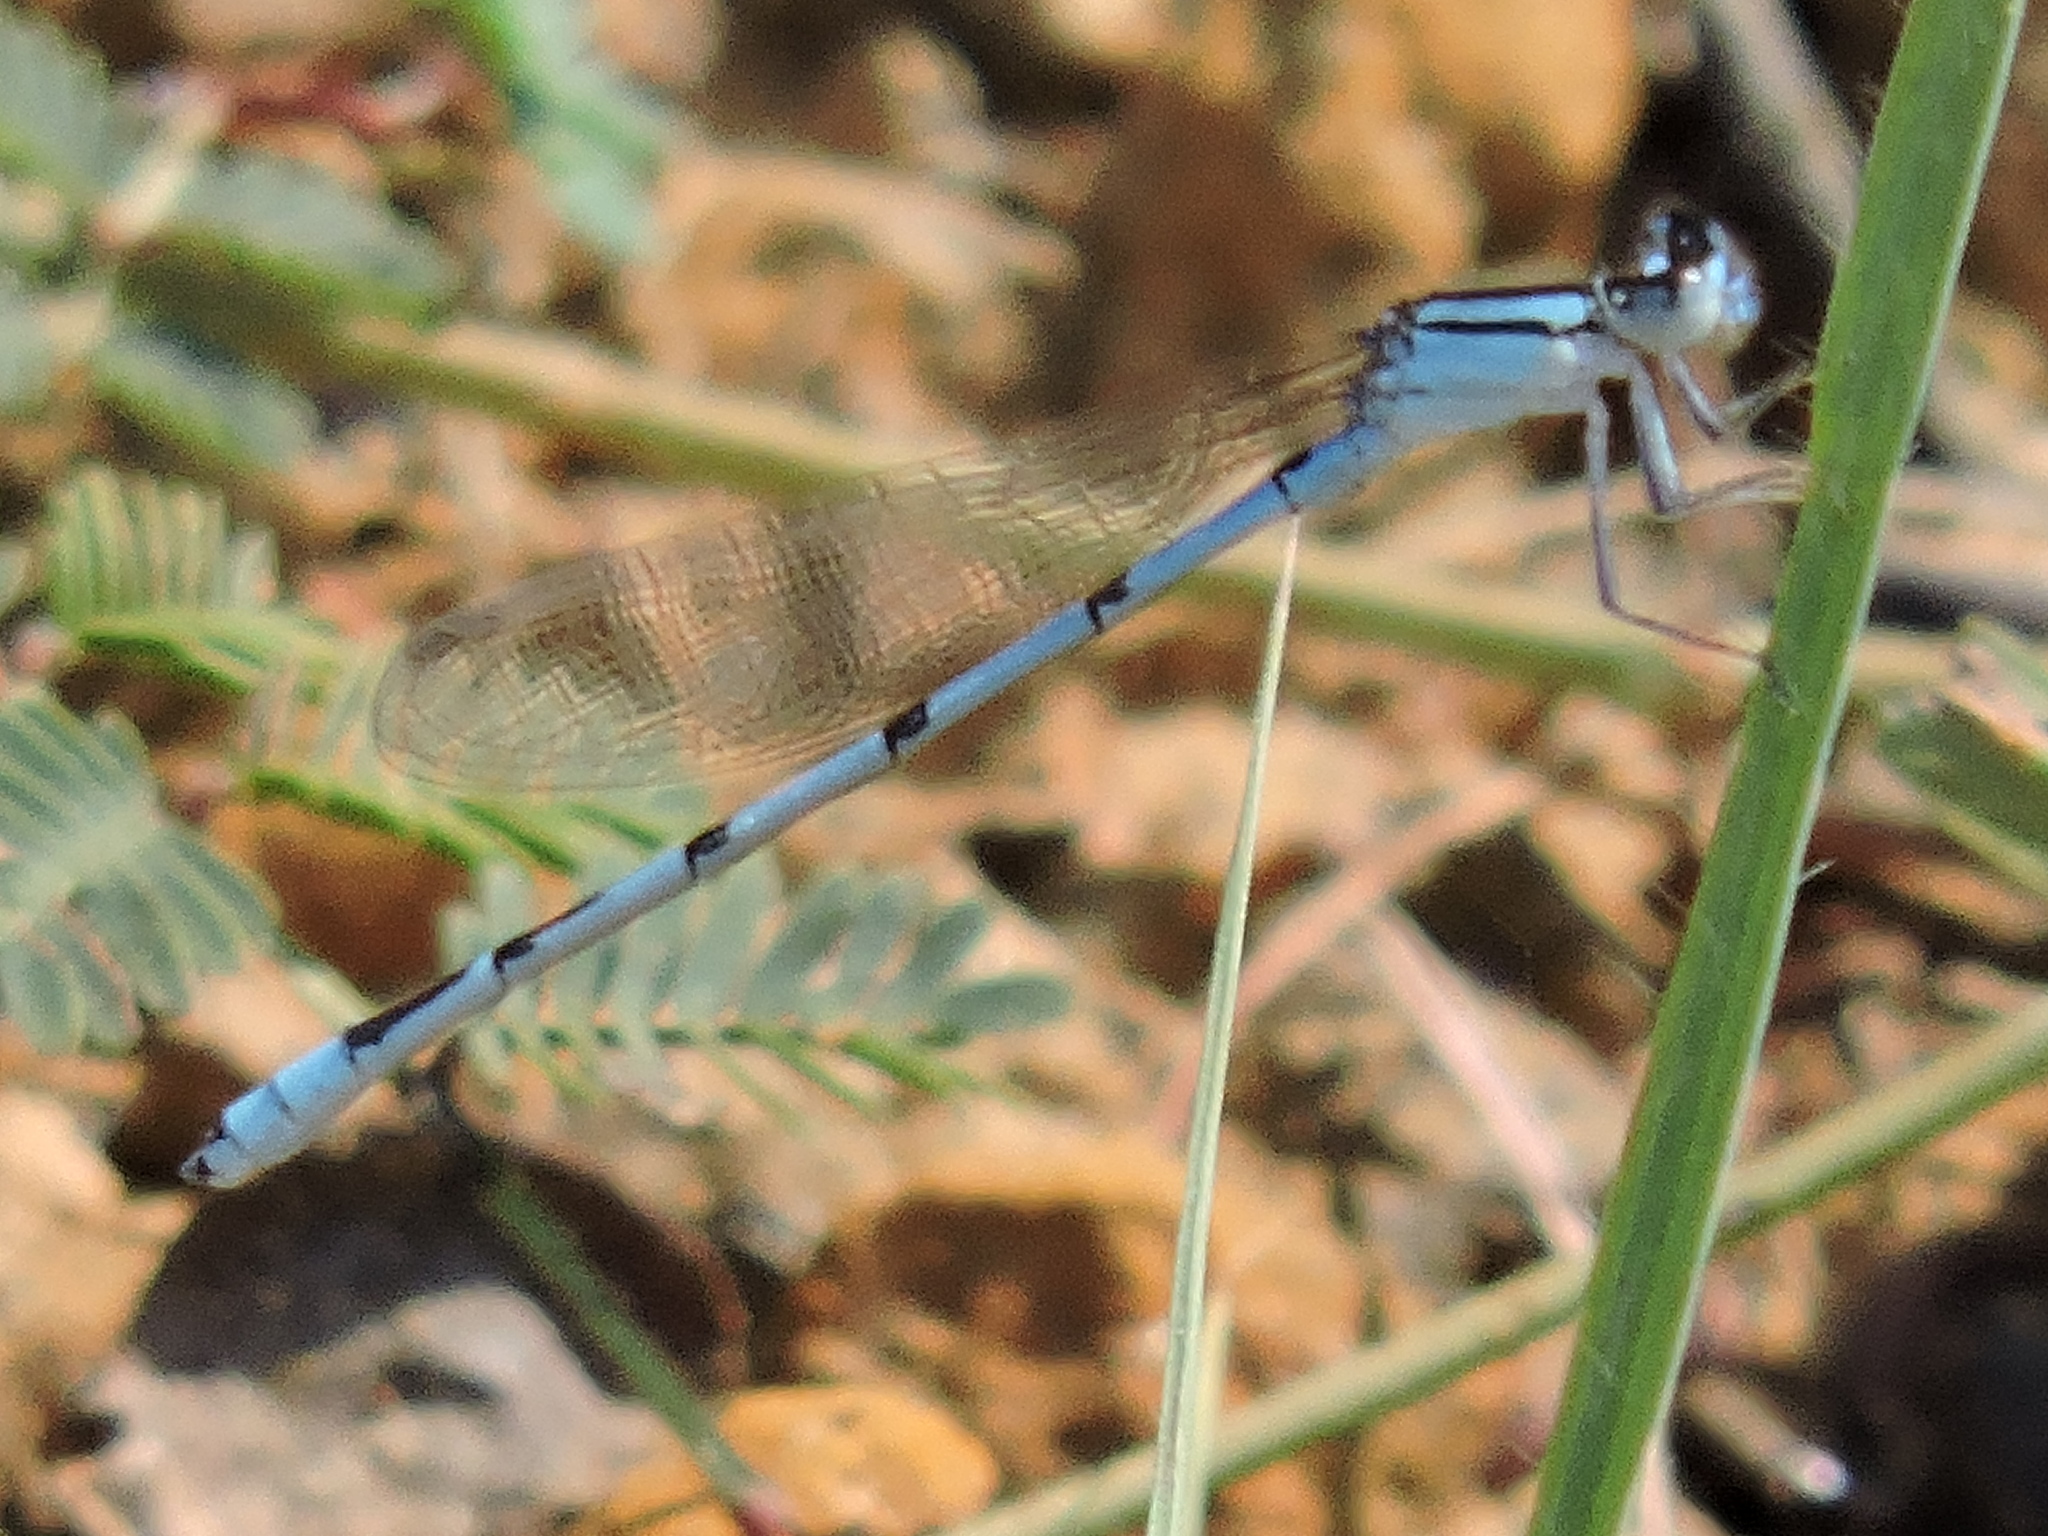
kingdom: Animalia
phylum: Arthropoda
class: Insecta
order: Odonata
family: Coenagrionidae
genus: Enallagma
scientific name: Enallagma civile
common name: Damselfly
